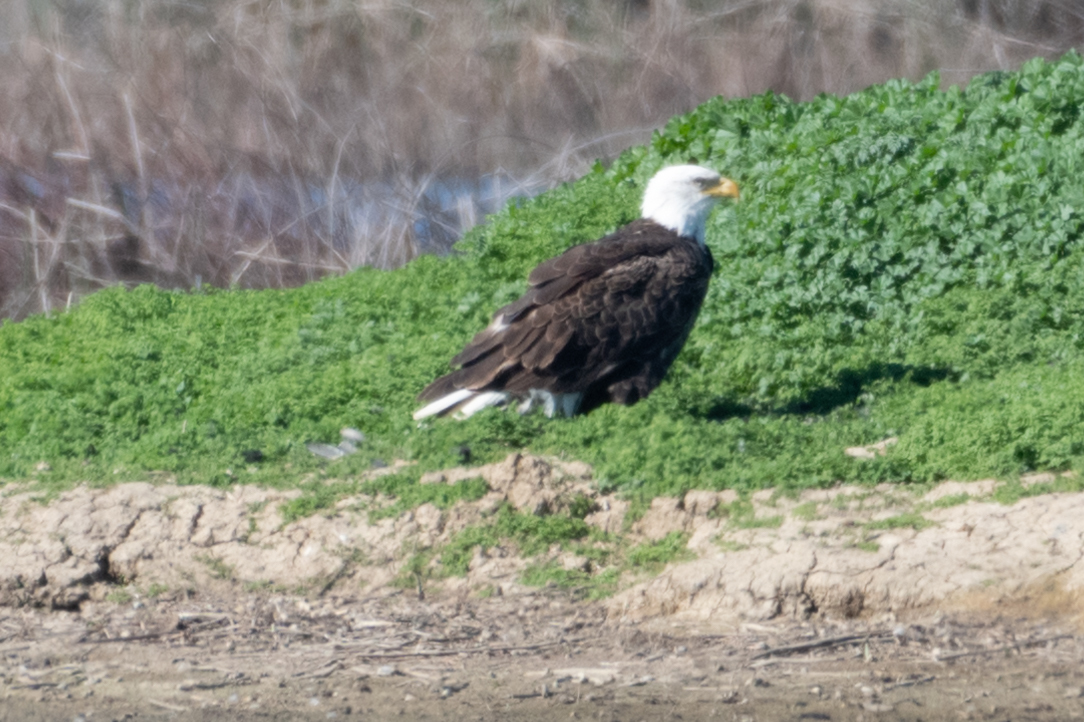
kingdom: Animalia
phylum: Chordata
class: Aves
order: Accipitriformes
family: Accipitridae
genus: Haliaeetus
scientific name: Haliaeetus leucocephalus
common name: Bald eagle
